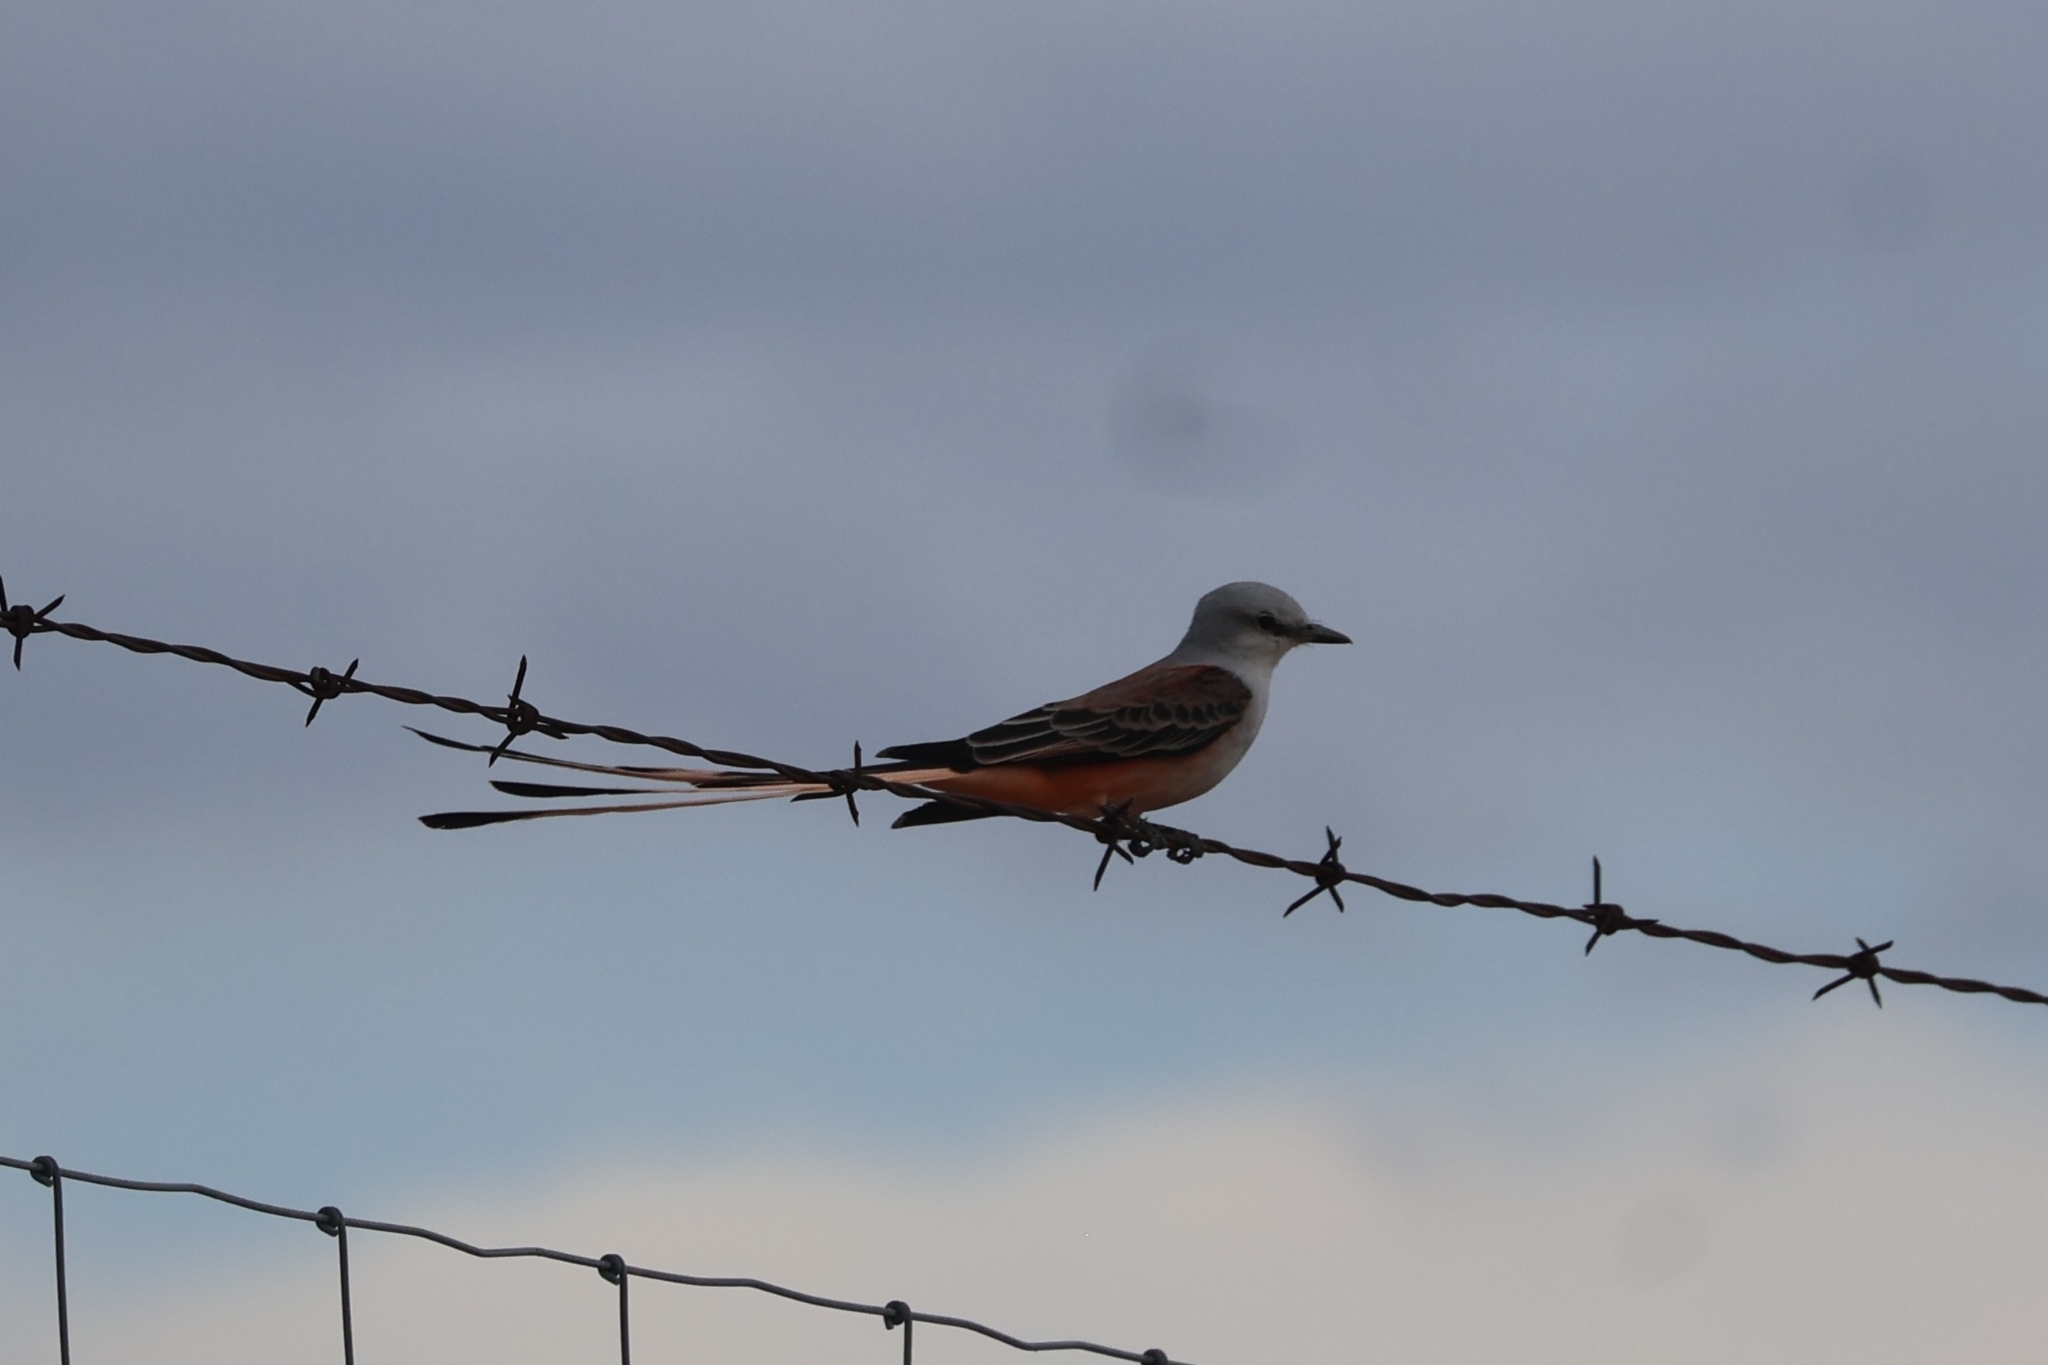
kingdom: Animalia
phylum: Chordata
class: Aves
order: Passeriformes
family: Tyrannidae
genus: Tyrannus
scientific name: Tyrannus forficatus
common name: Scissor-tailed flycatcher
